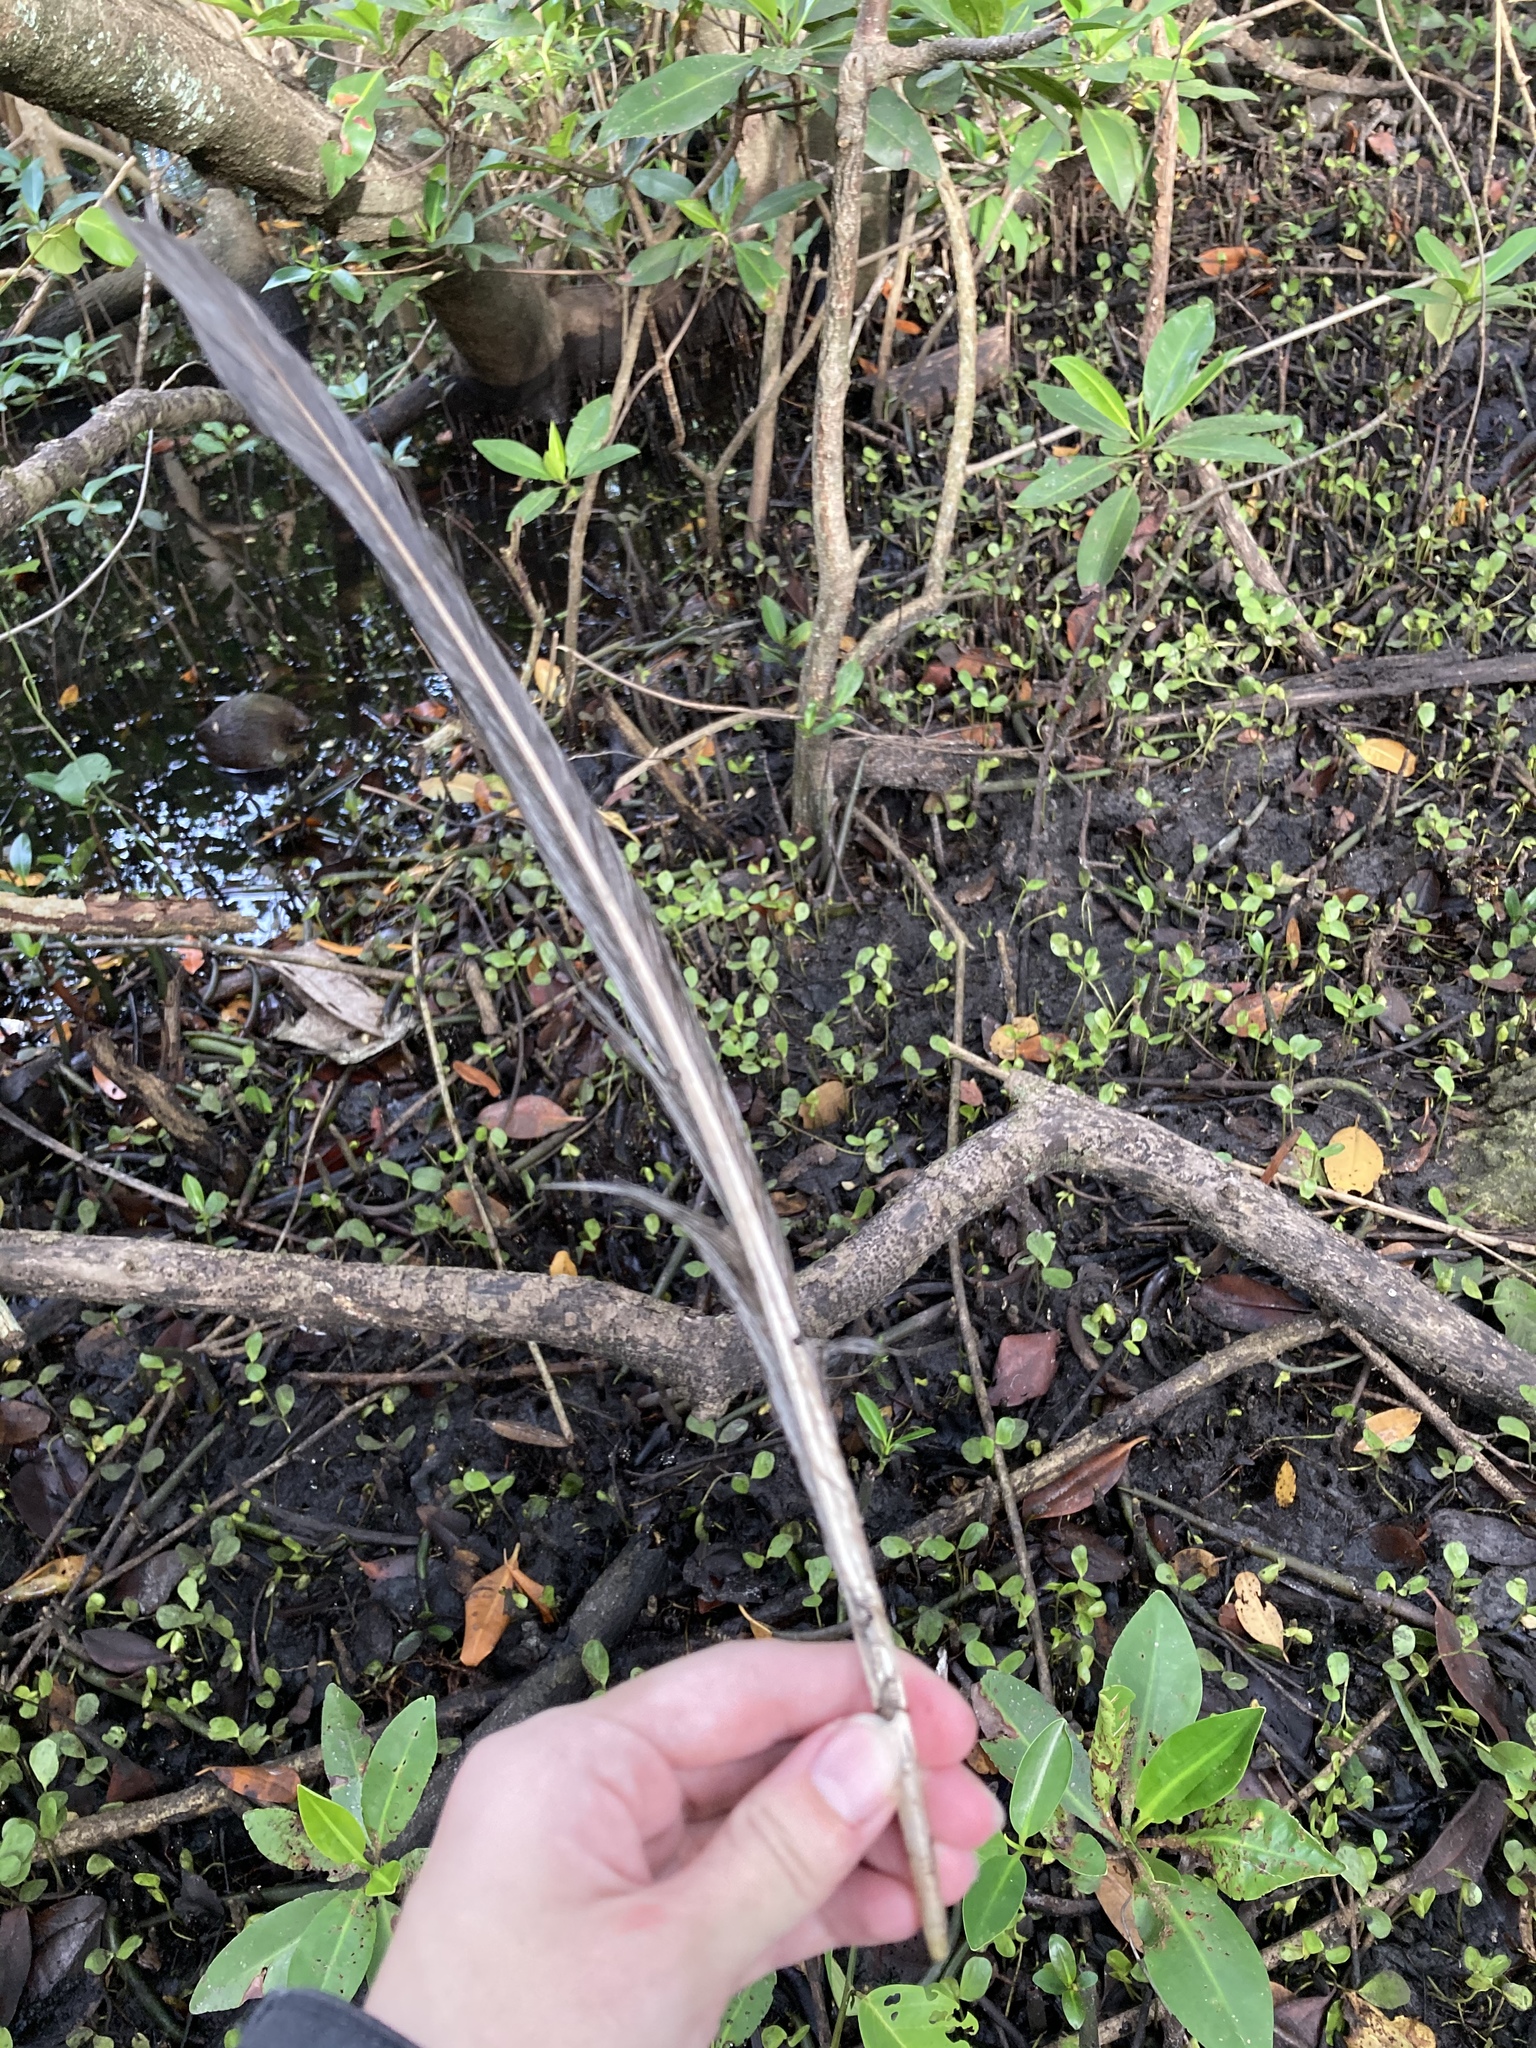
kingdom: Animalia
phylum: Chordata
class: Aves
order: Pelecaniformes
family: Ardeidae
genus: Ardea
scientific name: Ardea herodias
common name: Great blue heron
